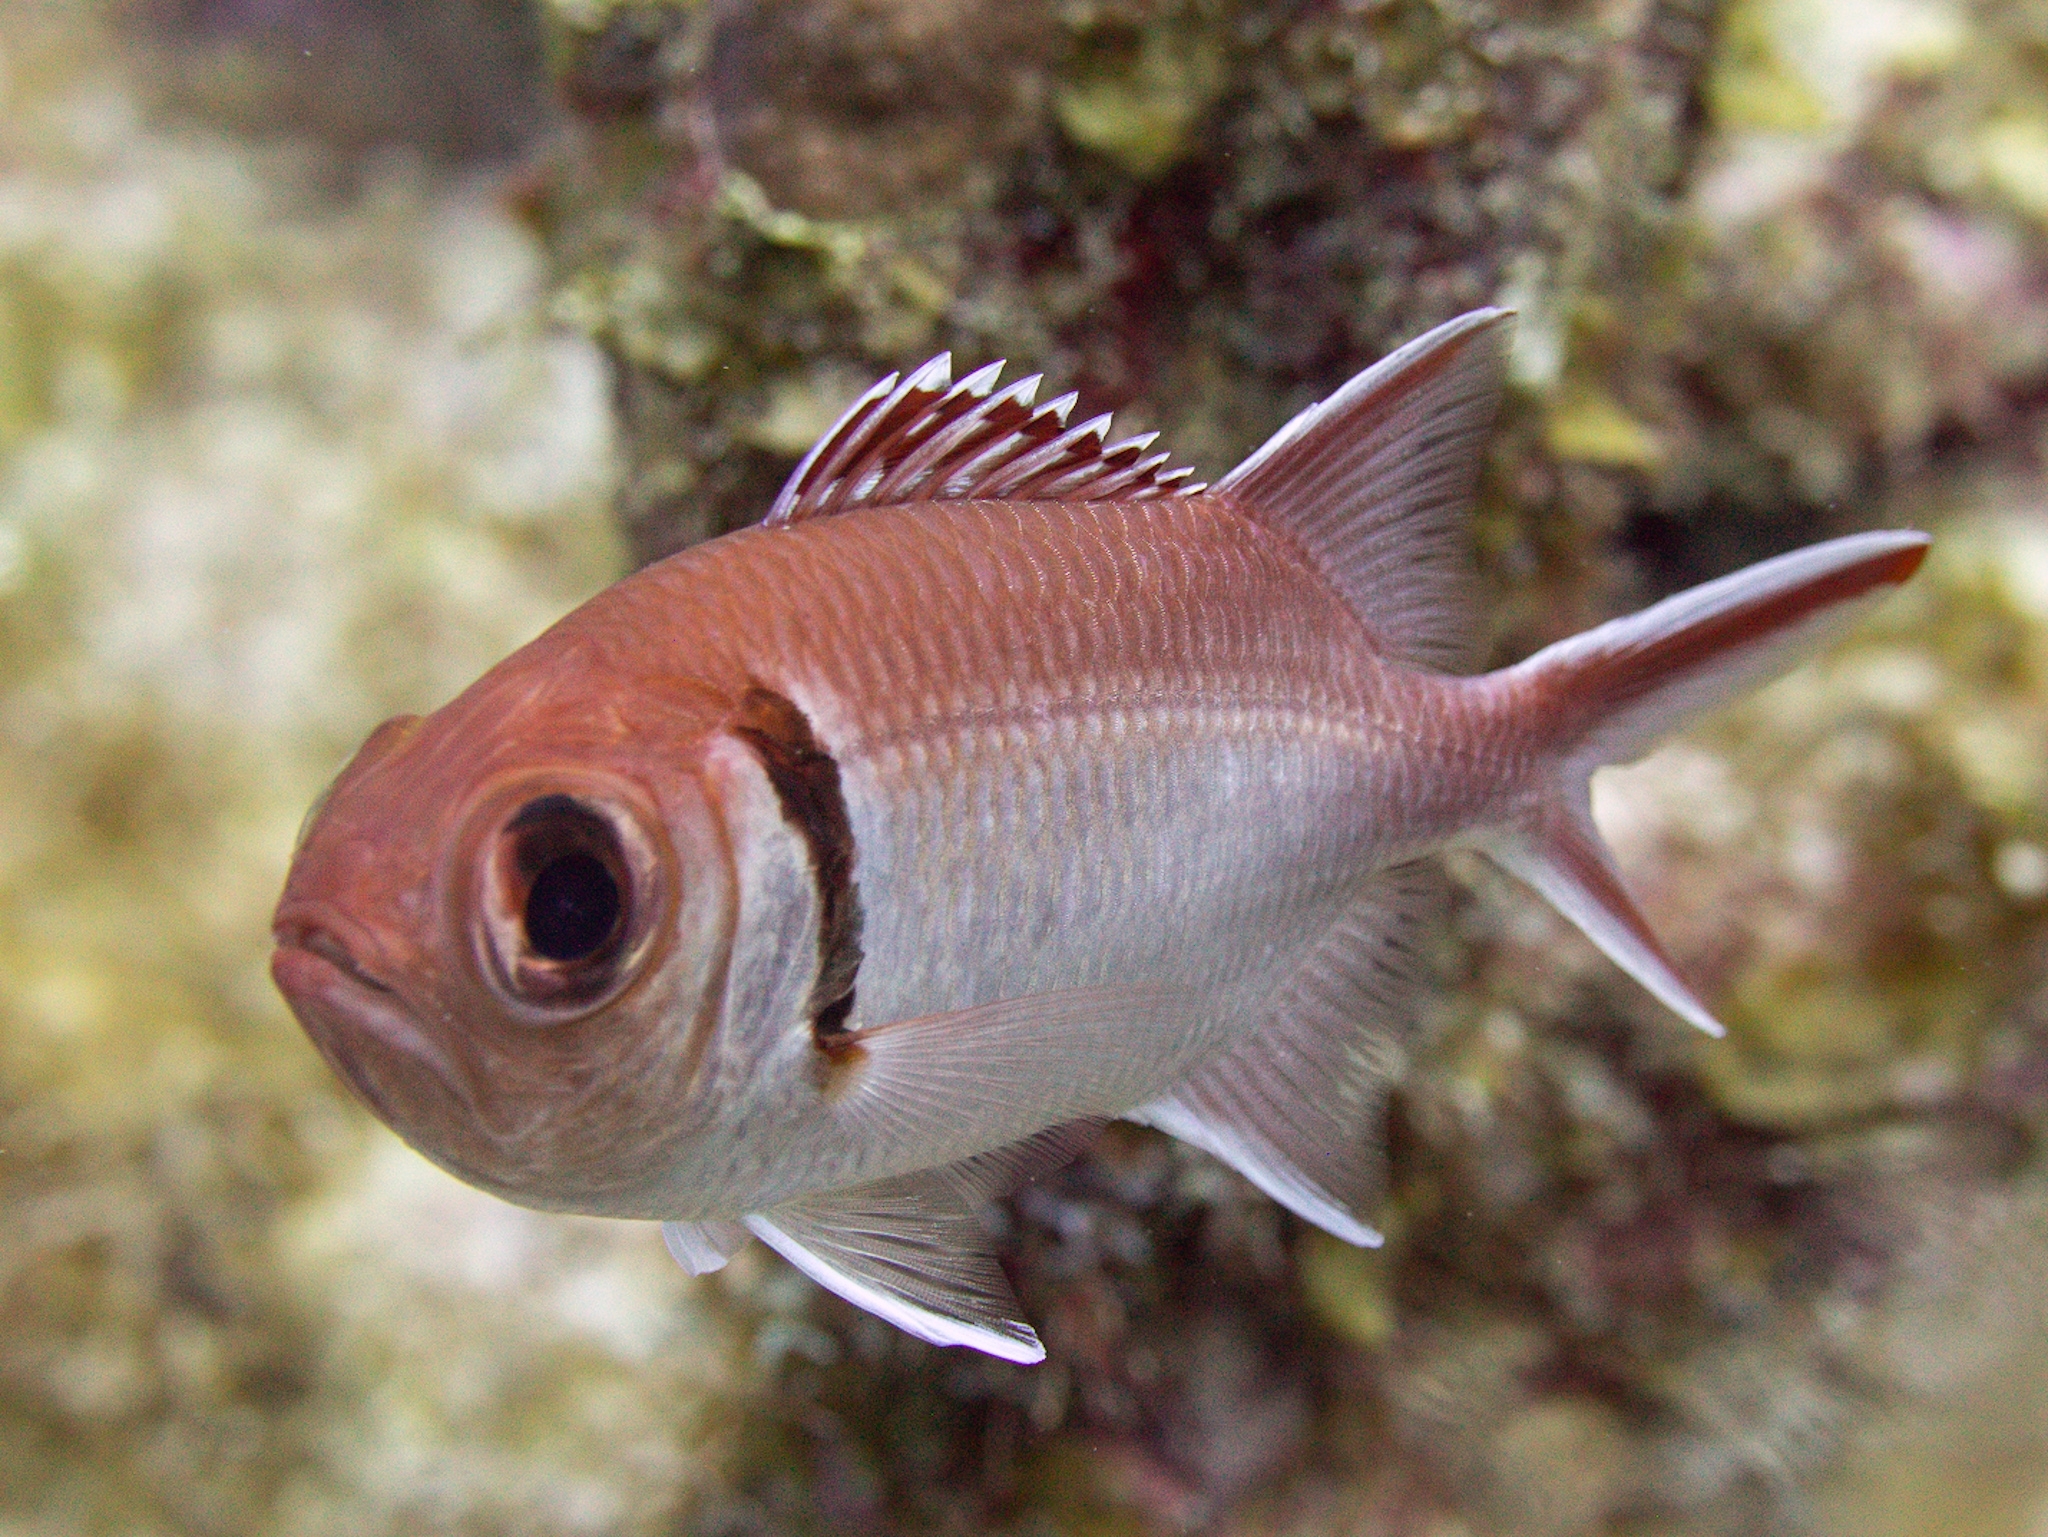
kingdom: Animalia
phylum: Chordata
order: Beryciformes
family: Holocentridae
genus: Myripristis
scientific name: Myripristis jacobus
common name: Blackbar soldierfish
